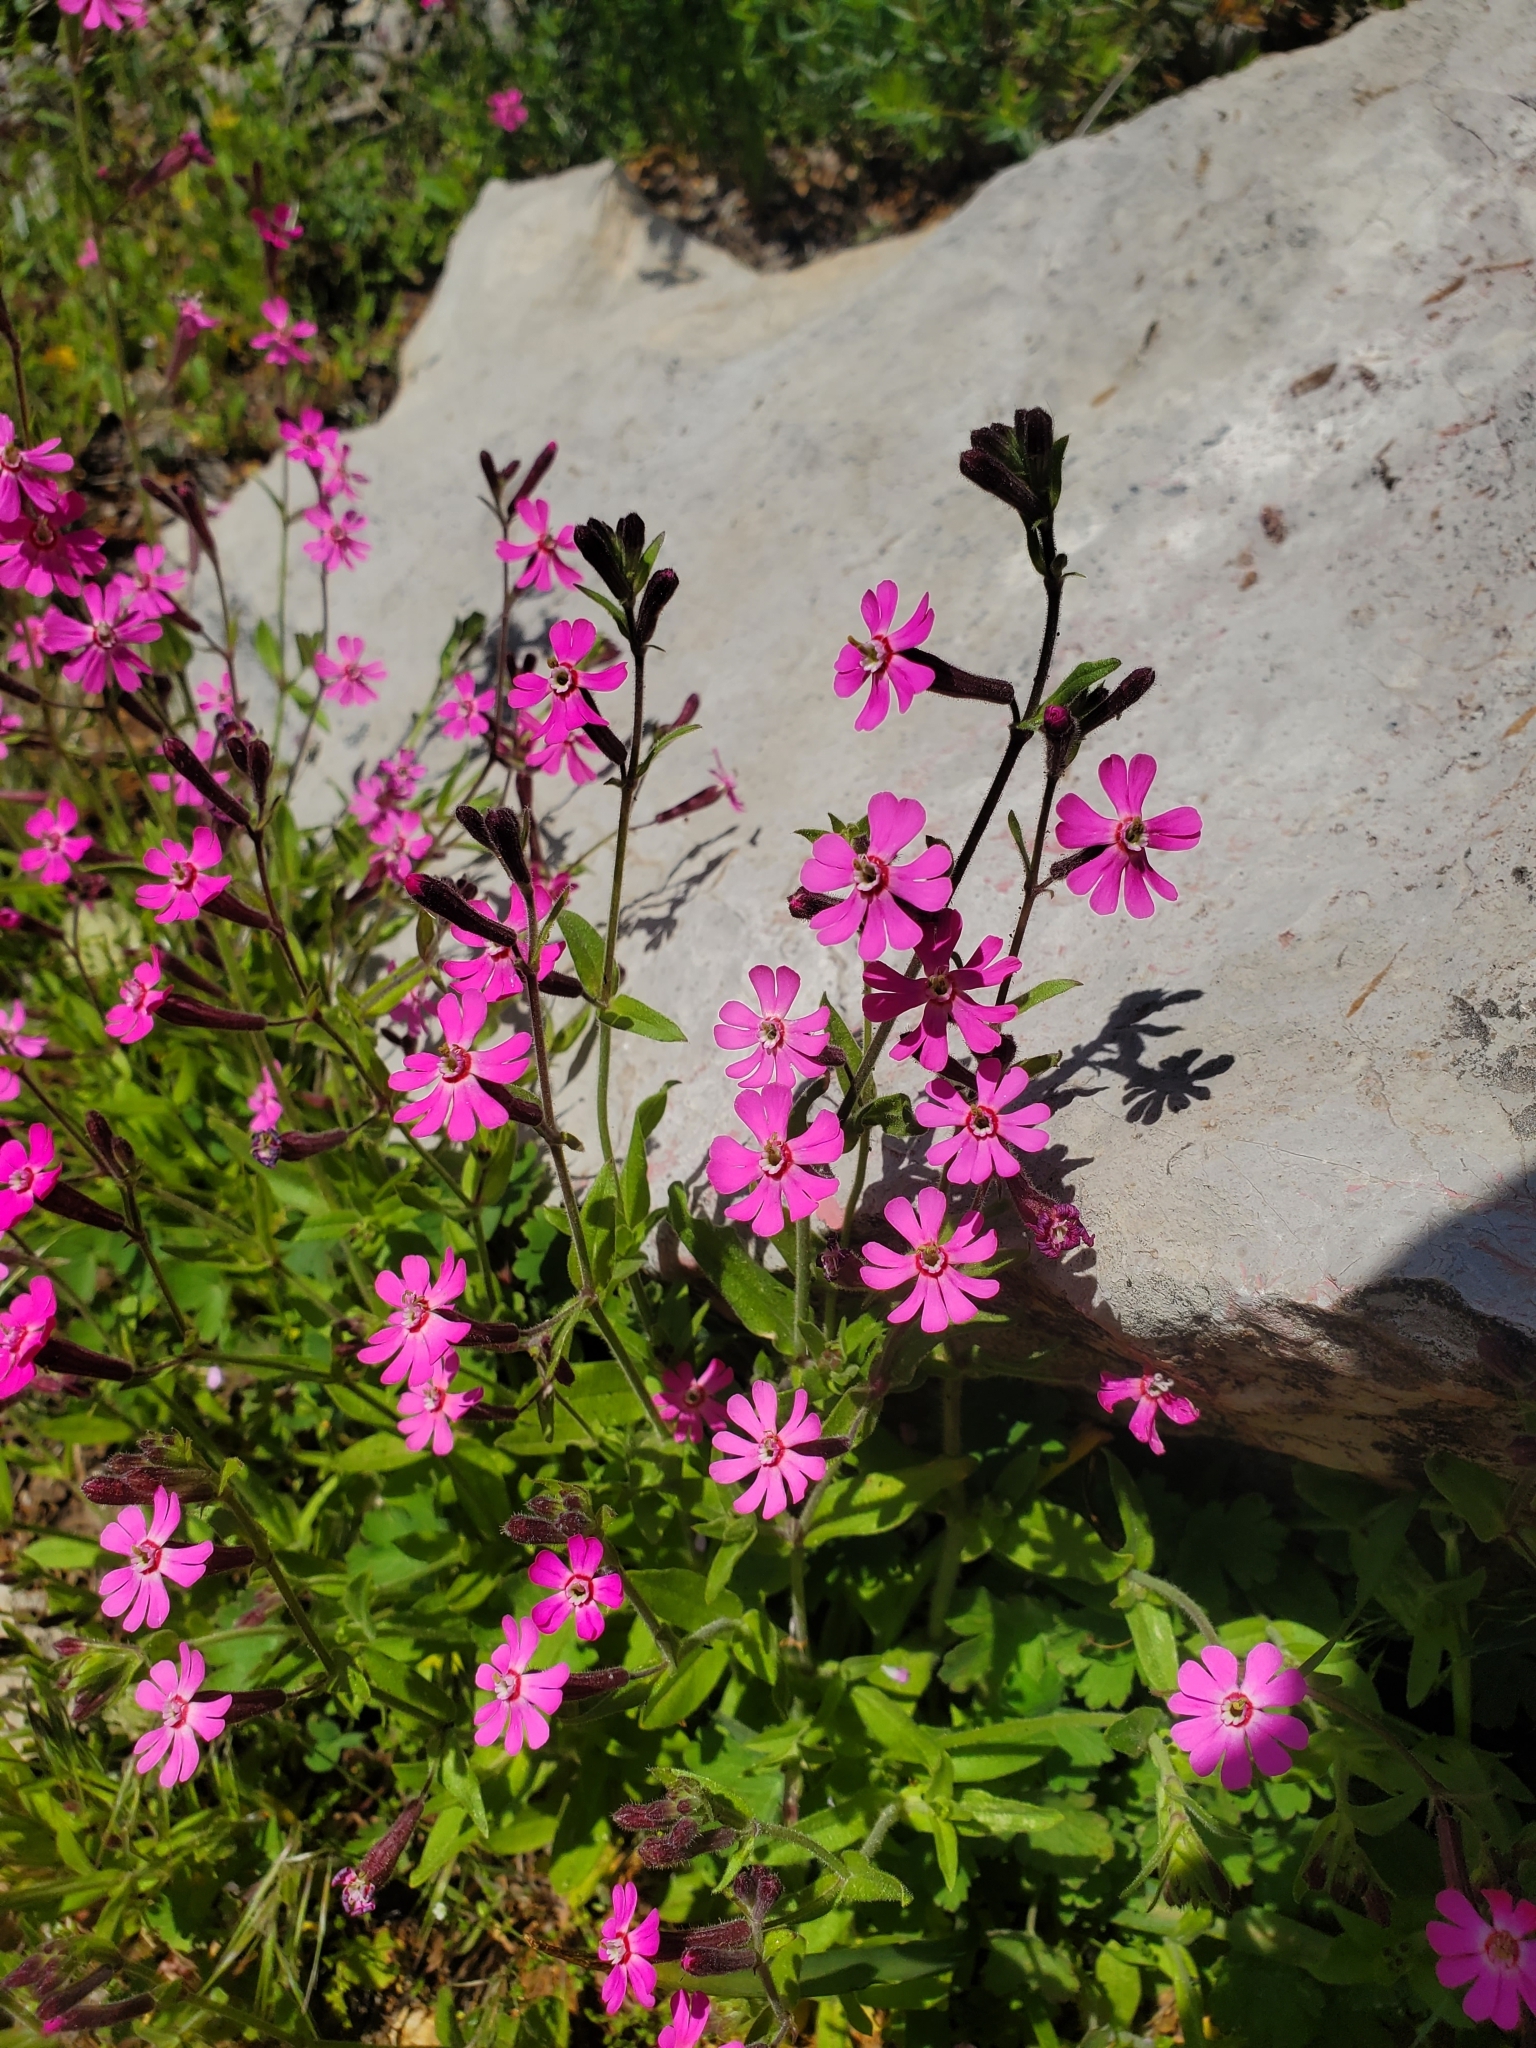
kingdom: Plantae
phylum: Tracheophyta
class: Magnoliopsida
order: Caryophyllales
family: Caryophyllaceae
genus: Silene
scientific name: Silene damascena
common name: Damascus catchfly
